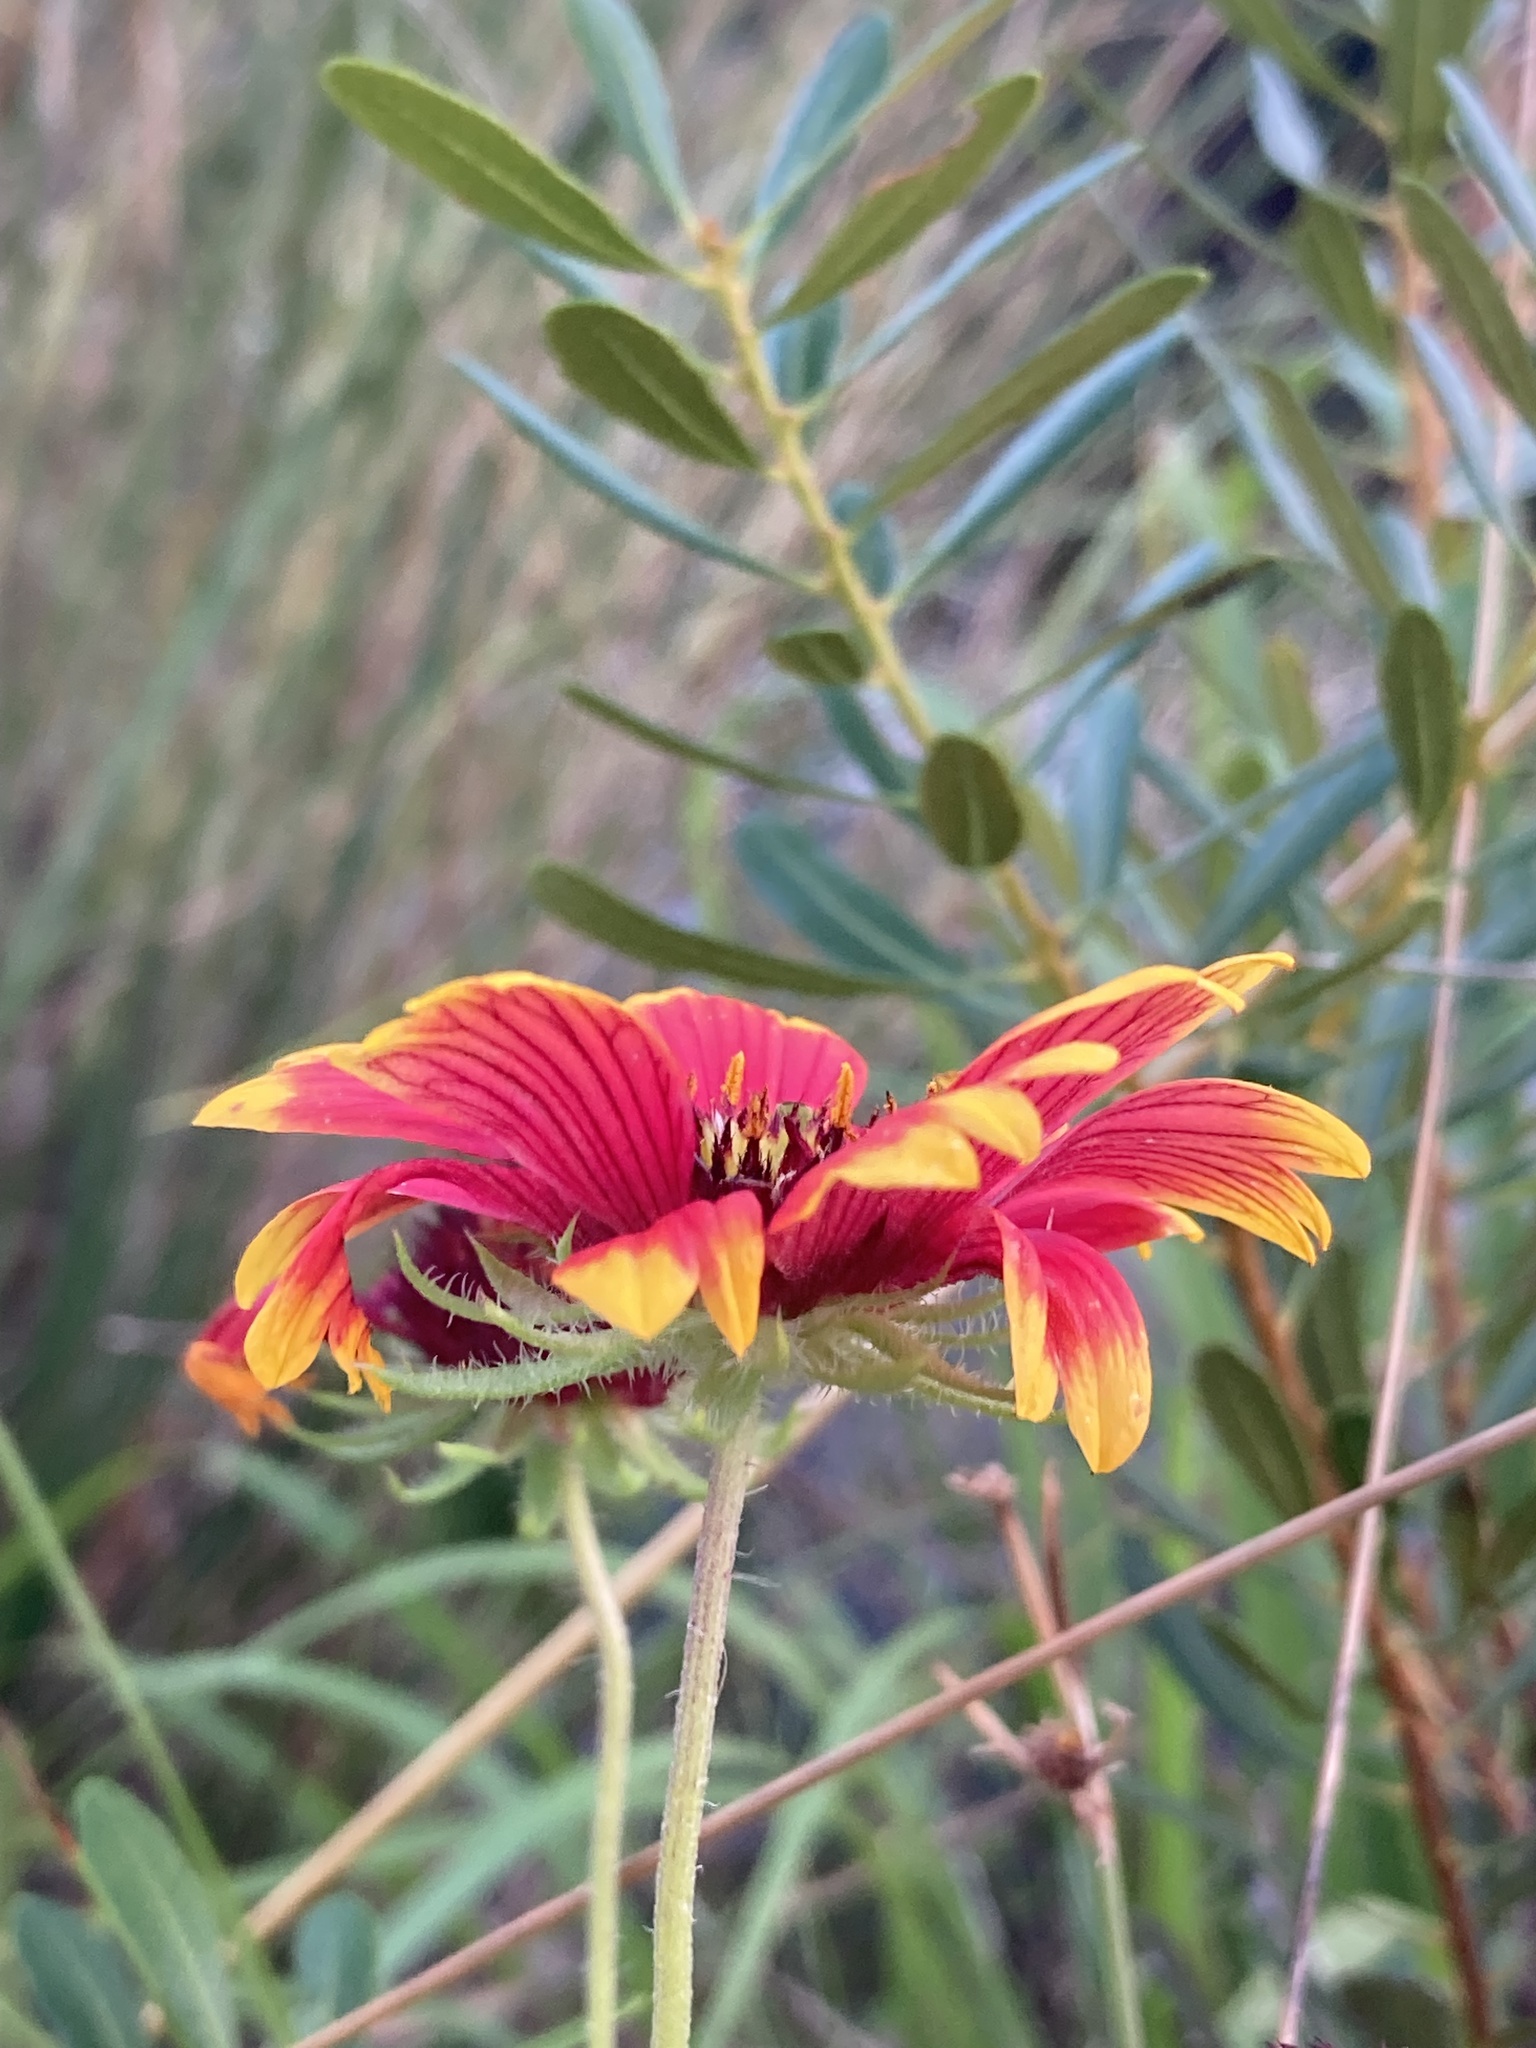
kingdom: Plantae
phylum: Tracheophyta
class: Magnoliopsida
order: Asterales
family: Asteraceae
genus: Gaillardia
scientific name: Gaillardia pulchella
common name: Firewheel
